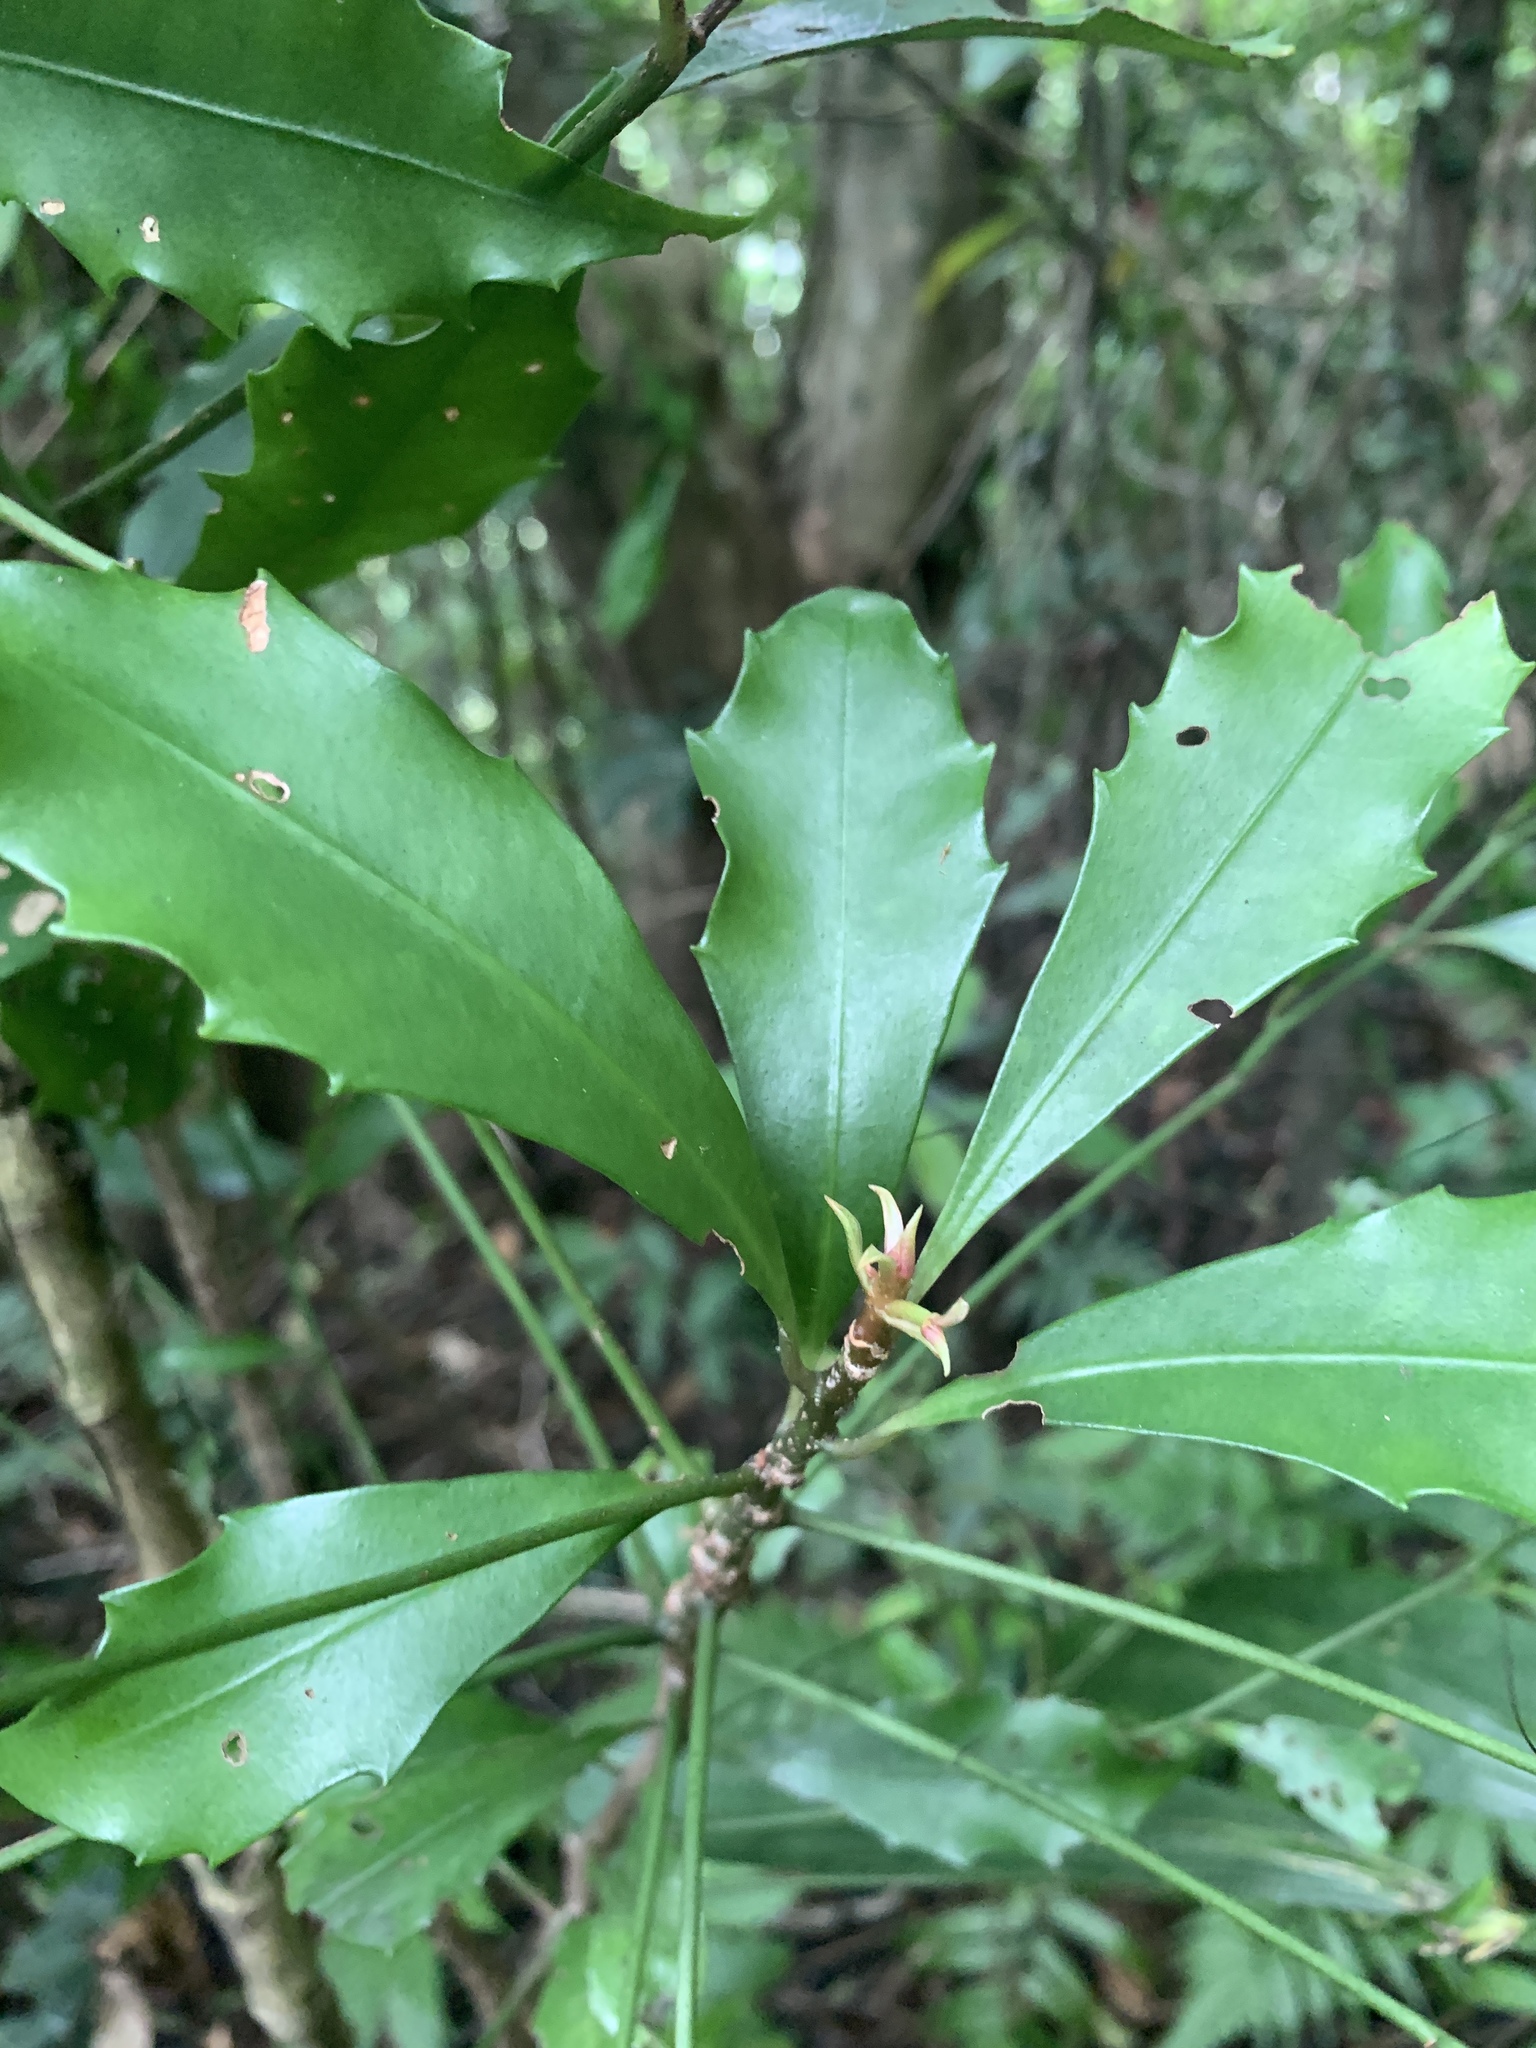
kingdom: Plantae
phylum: Tracheophyta
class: Magnoliopsida
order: Ericales
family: Primulaceae
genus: Ardisia
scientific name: Ardisia cornudentata
